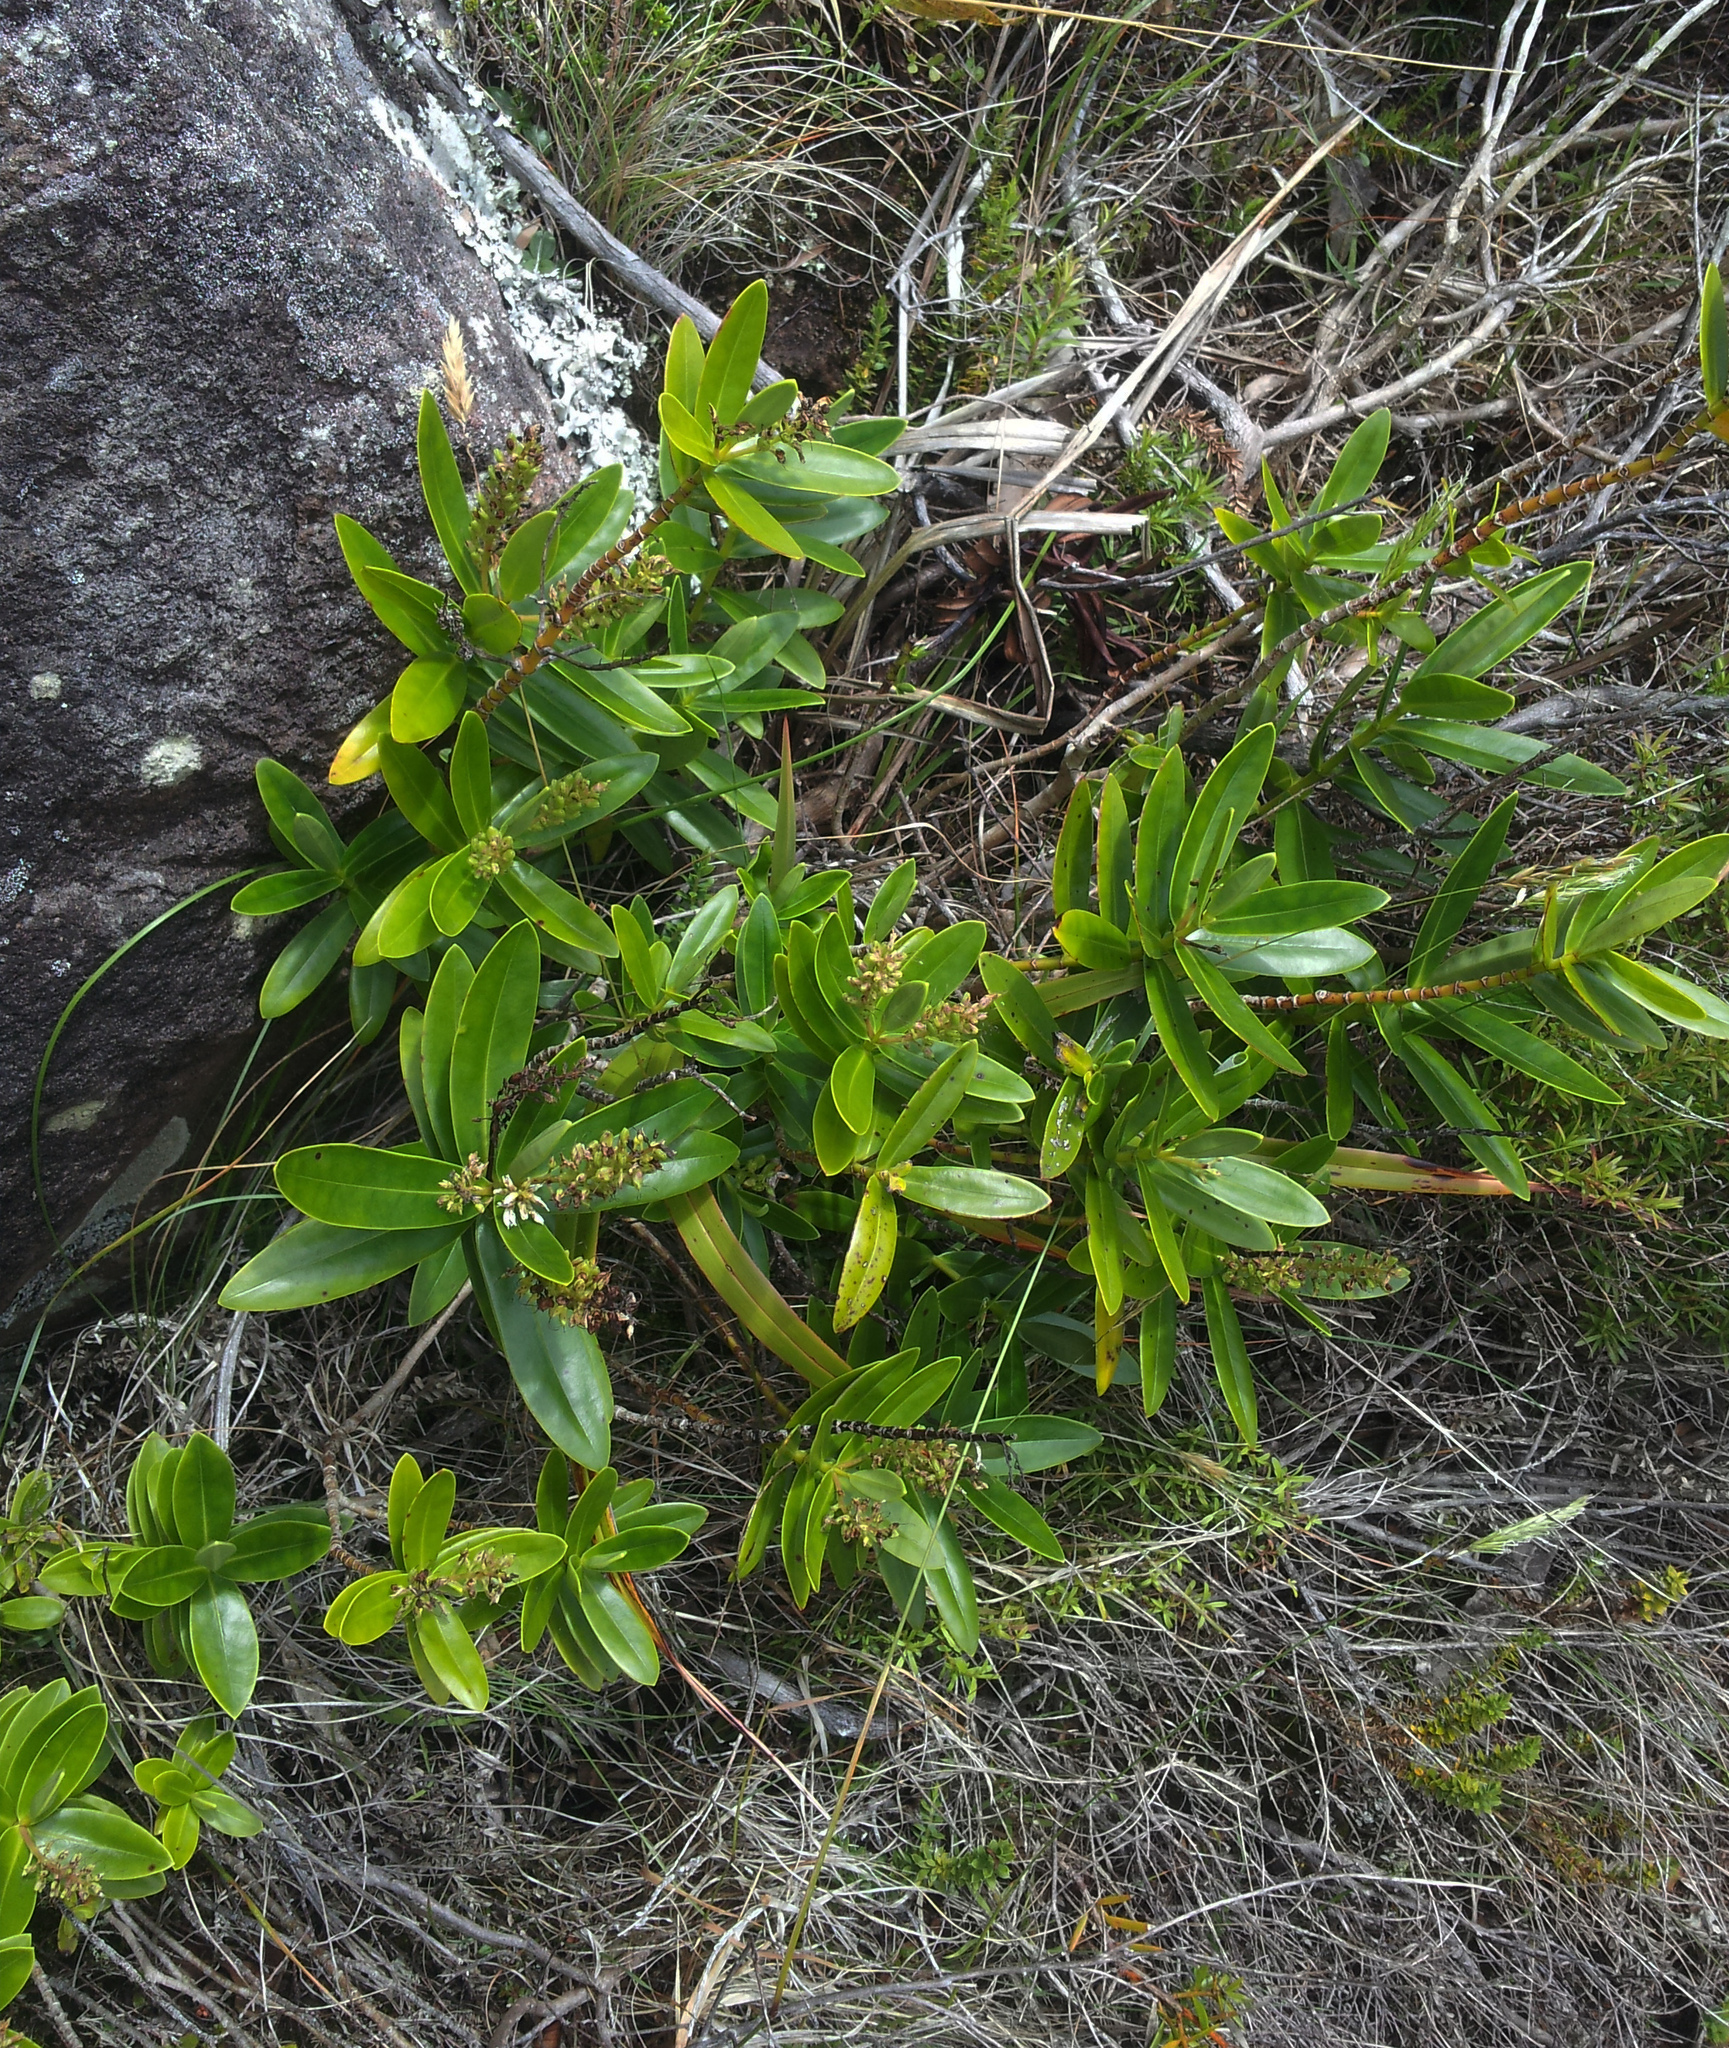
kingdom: Plantae
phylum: Tracheophyta
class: Magnoliopsida
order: Lamiales
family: Plantaginaceae
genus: Veronica
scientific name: Veronica saxicola
